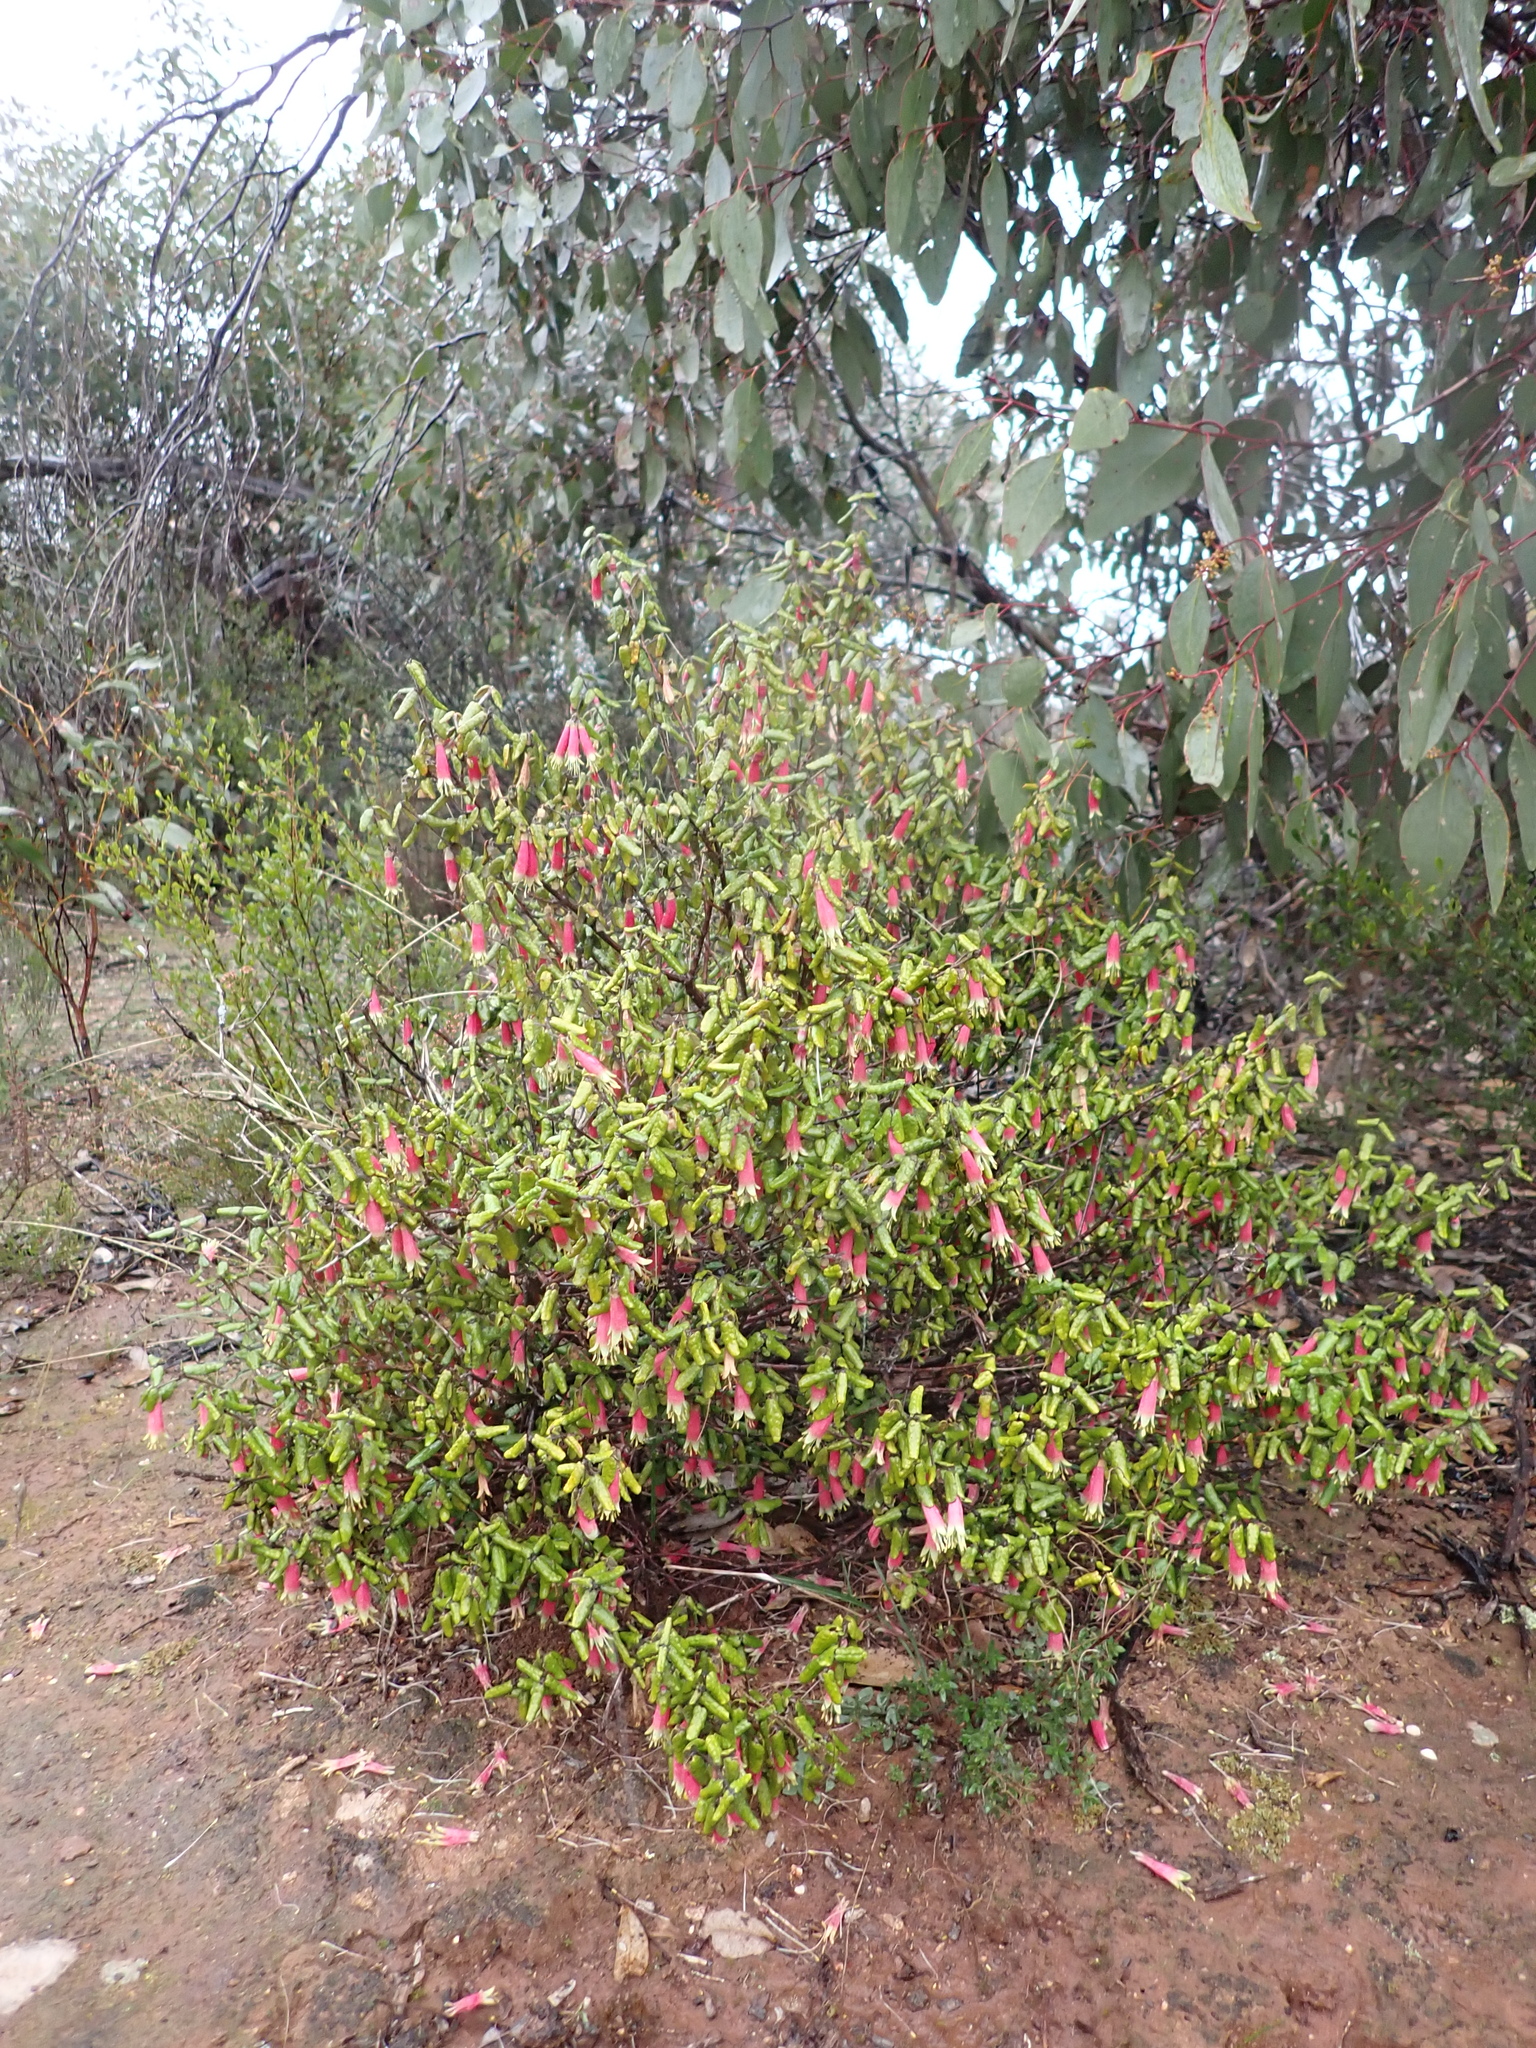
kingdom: Plantae
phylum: Tracheophyta
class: Magnoliopsida
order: Sapindales
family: Rutaceae
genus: Correa
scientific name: Correa reflexa
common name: Common correa
